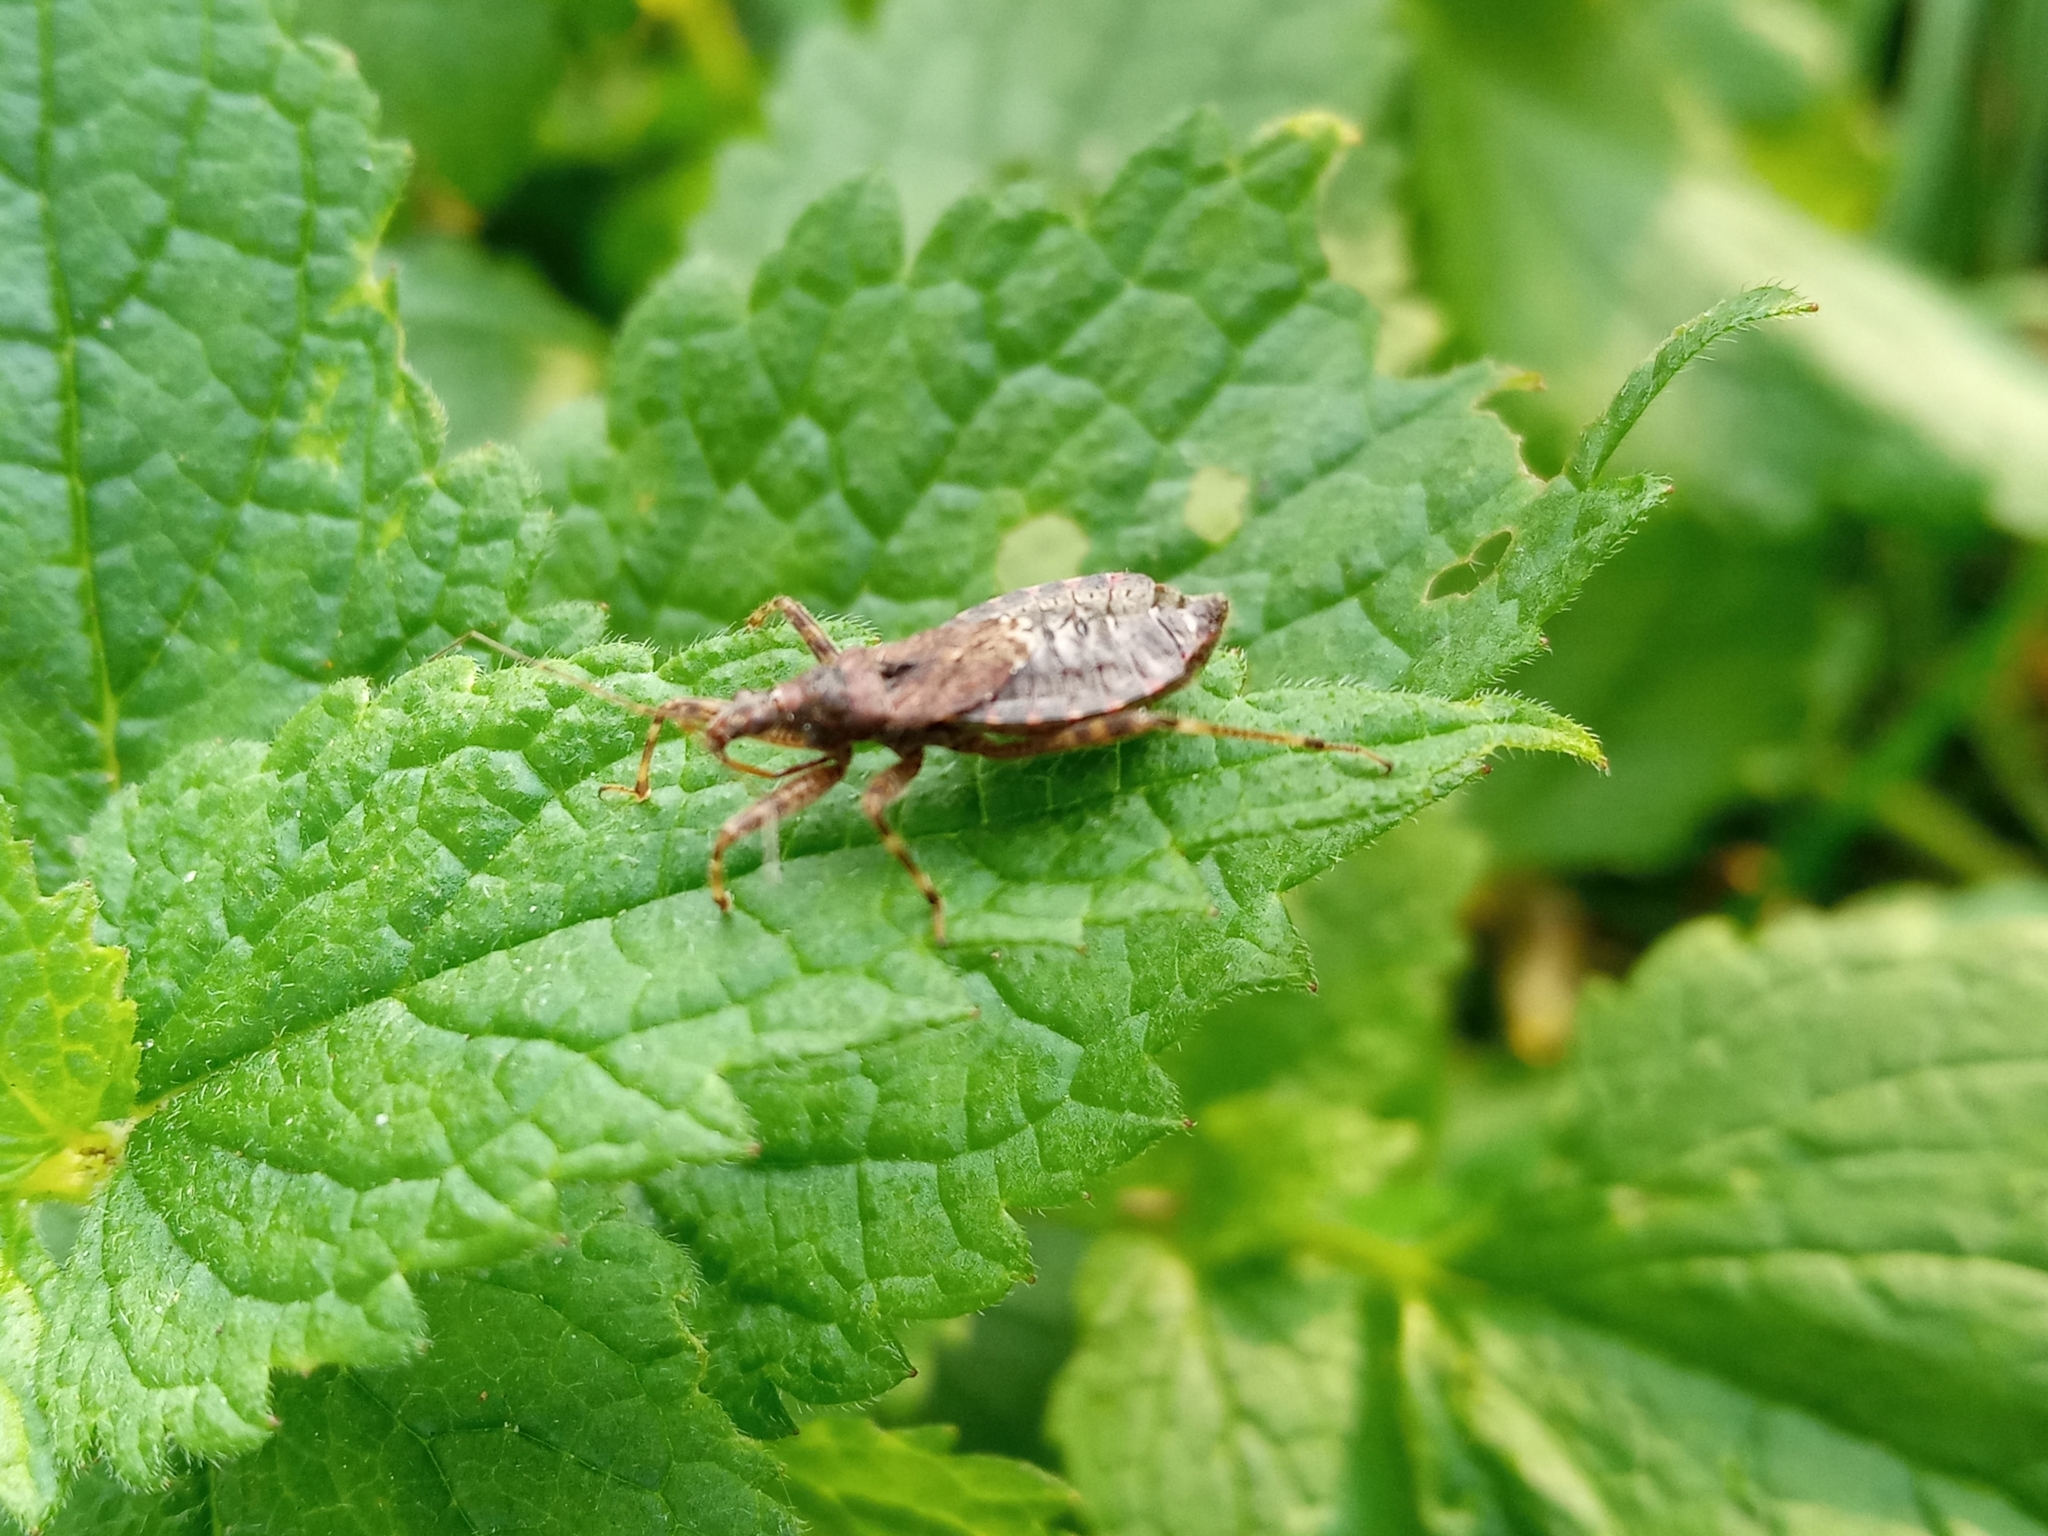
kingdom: Animalia
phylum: Arthropoda
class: Insecta
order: Hemiptera
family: Nabidae
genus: Himacerus
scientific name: Himacerus apterus
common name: Tree damsel bug
